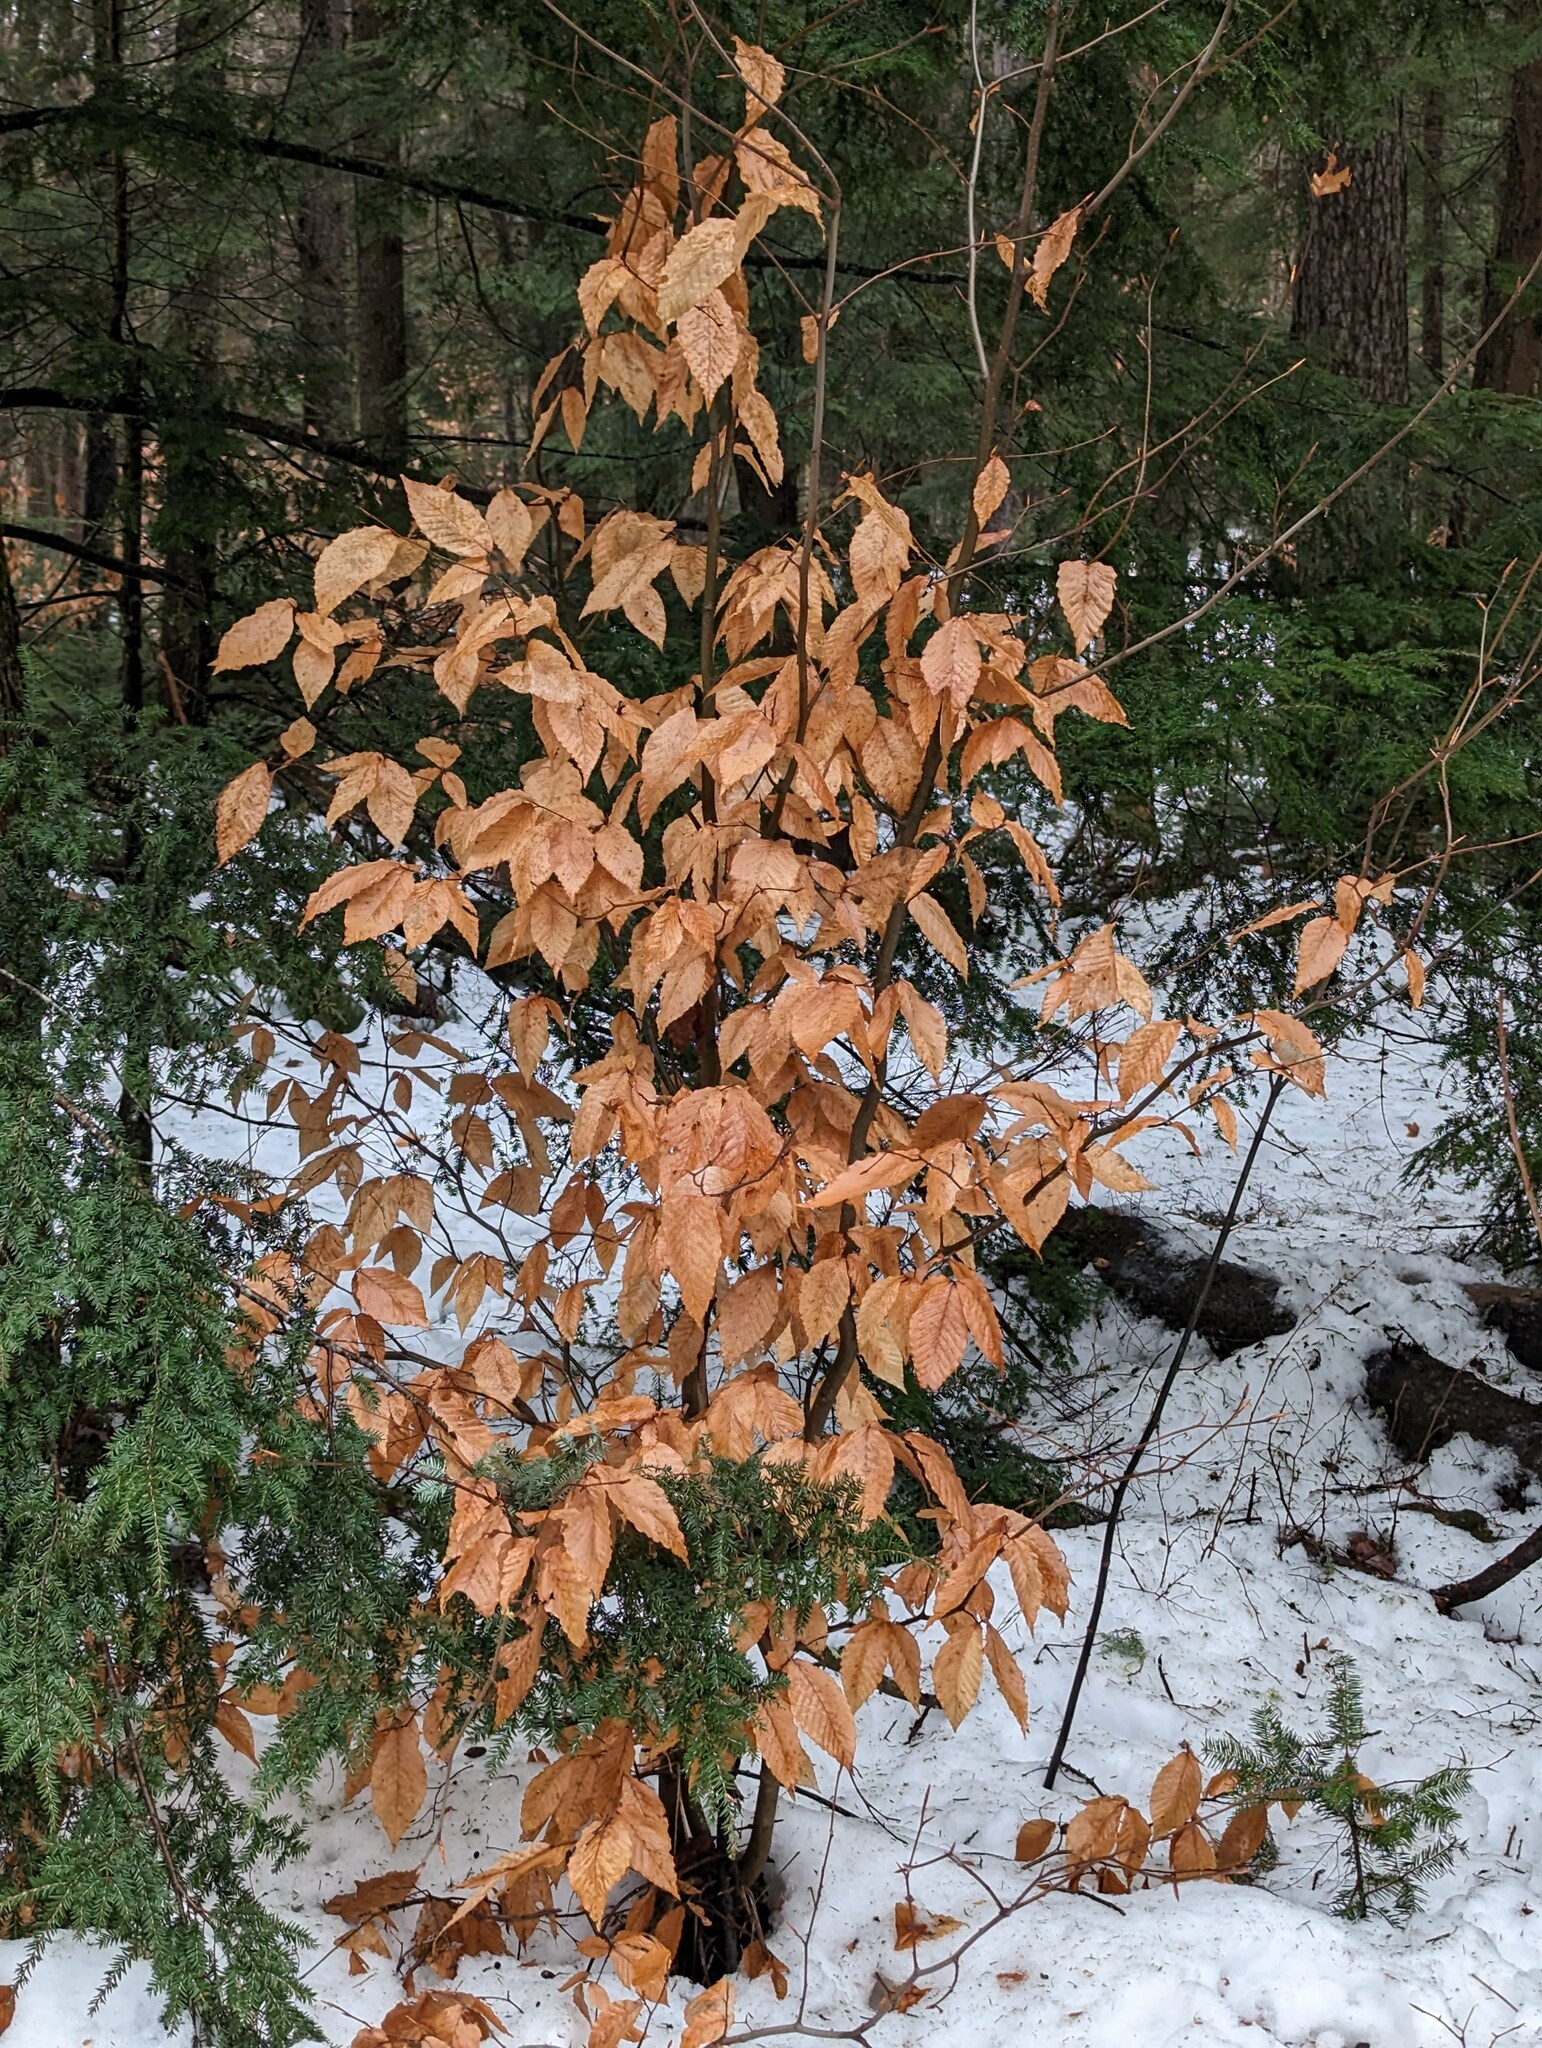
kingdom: Plantae
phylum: Tracheophyta
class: Magnoliopsida
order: Fagales
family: Fagaceae
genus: Fagus
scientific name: Fagus grandifolia
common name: American beech
